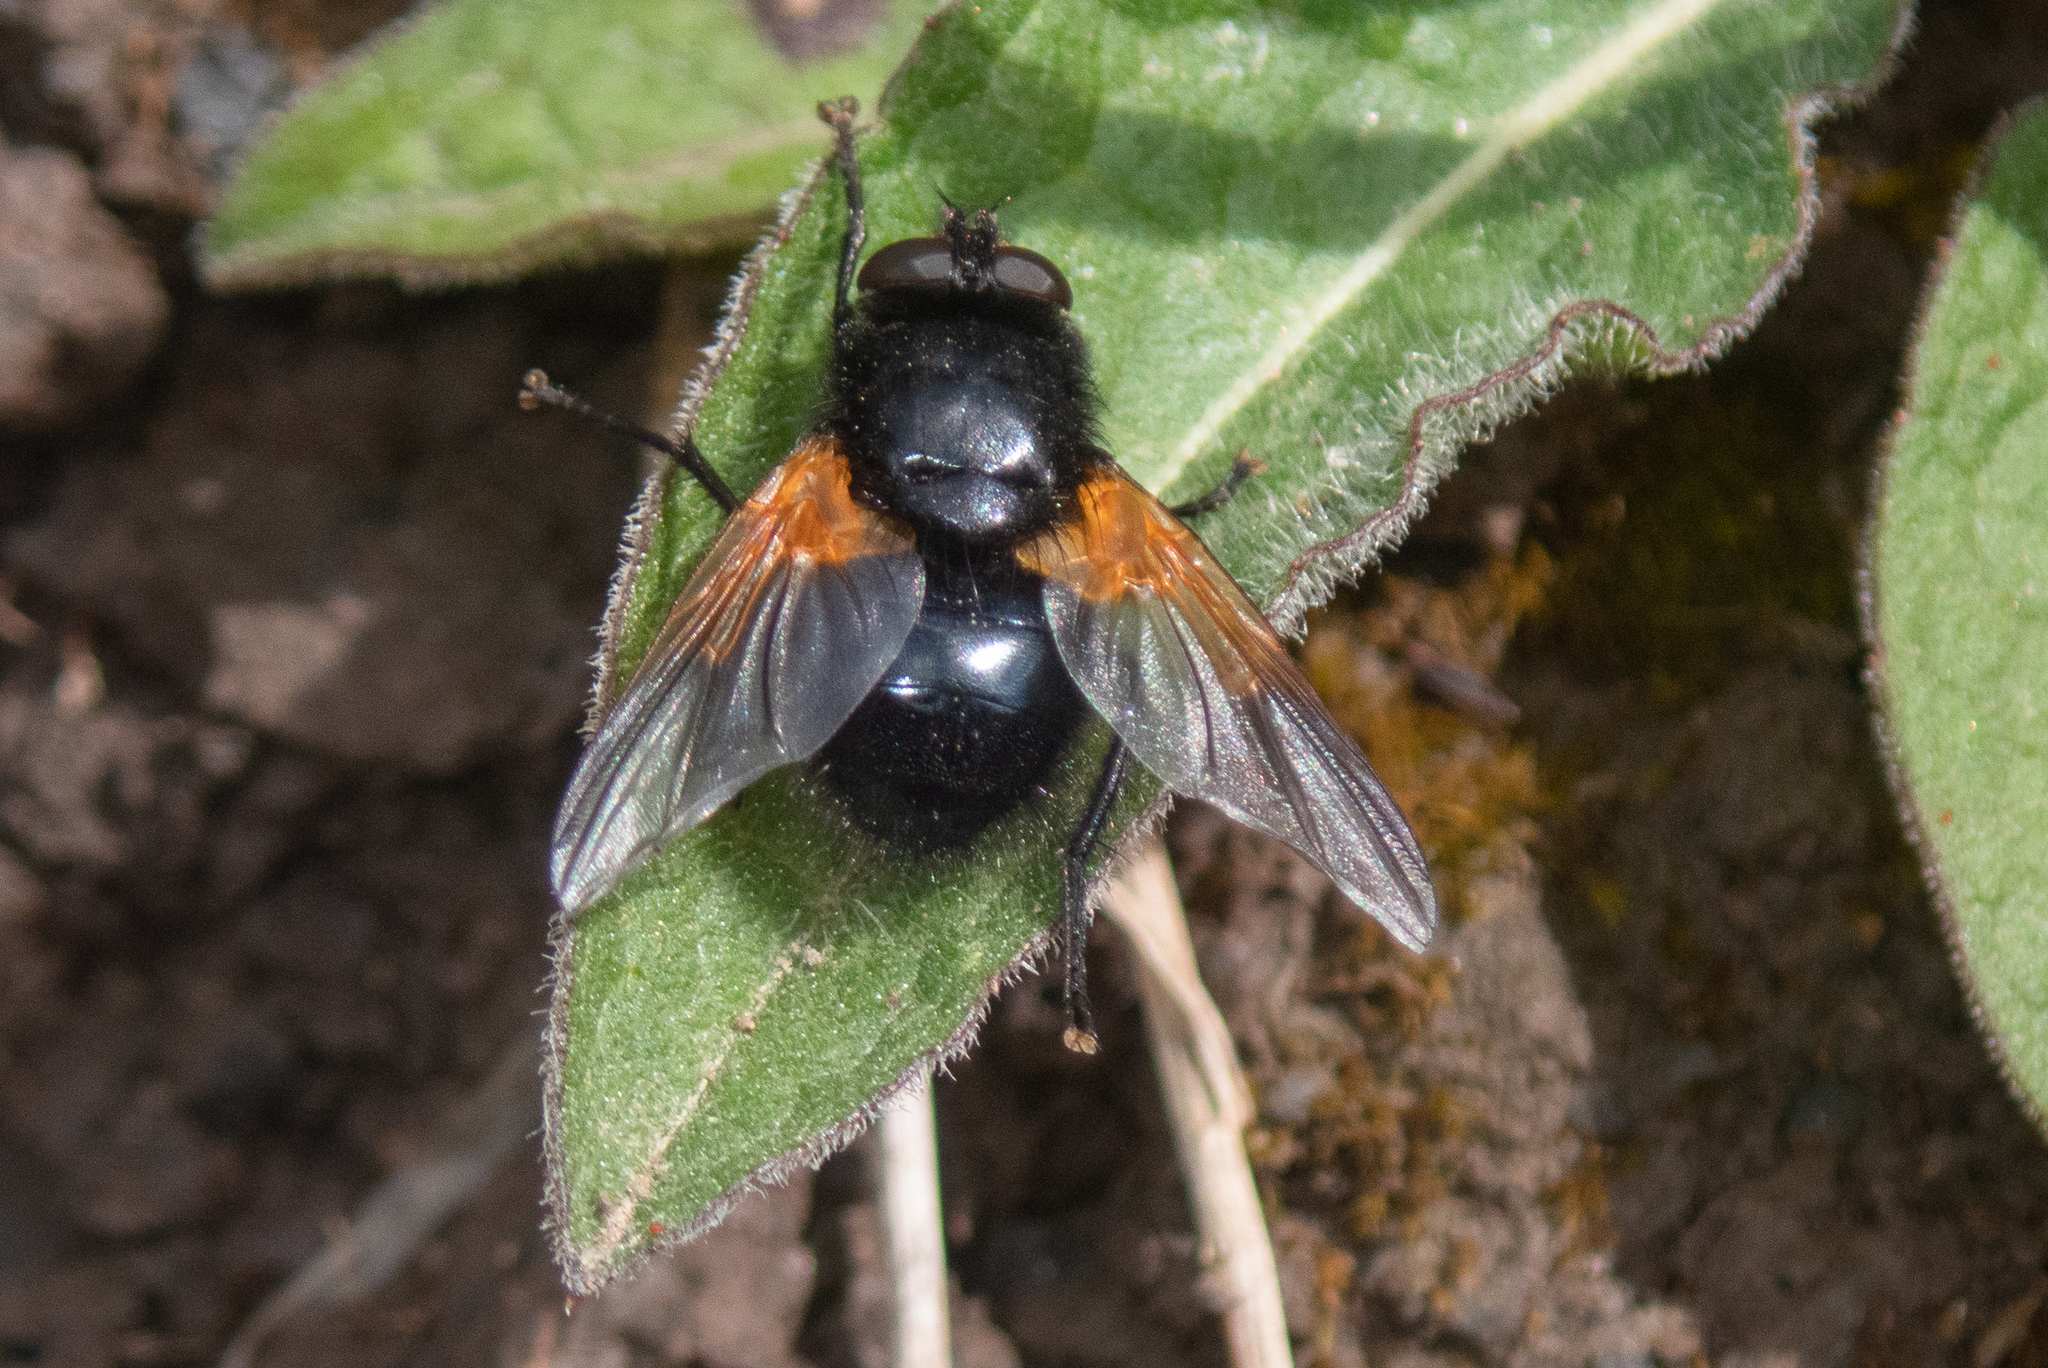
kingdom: Animalia
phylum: Arthropoda
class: Insecta
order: Diptera
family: Muscidae
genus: Mesembrina
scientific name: Mesembrina meridiana
